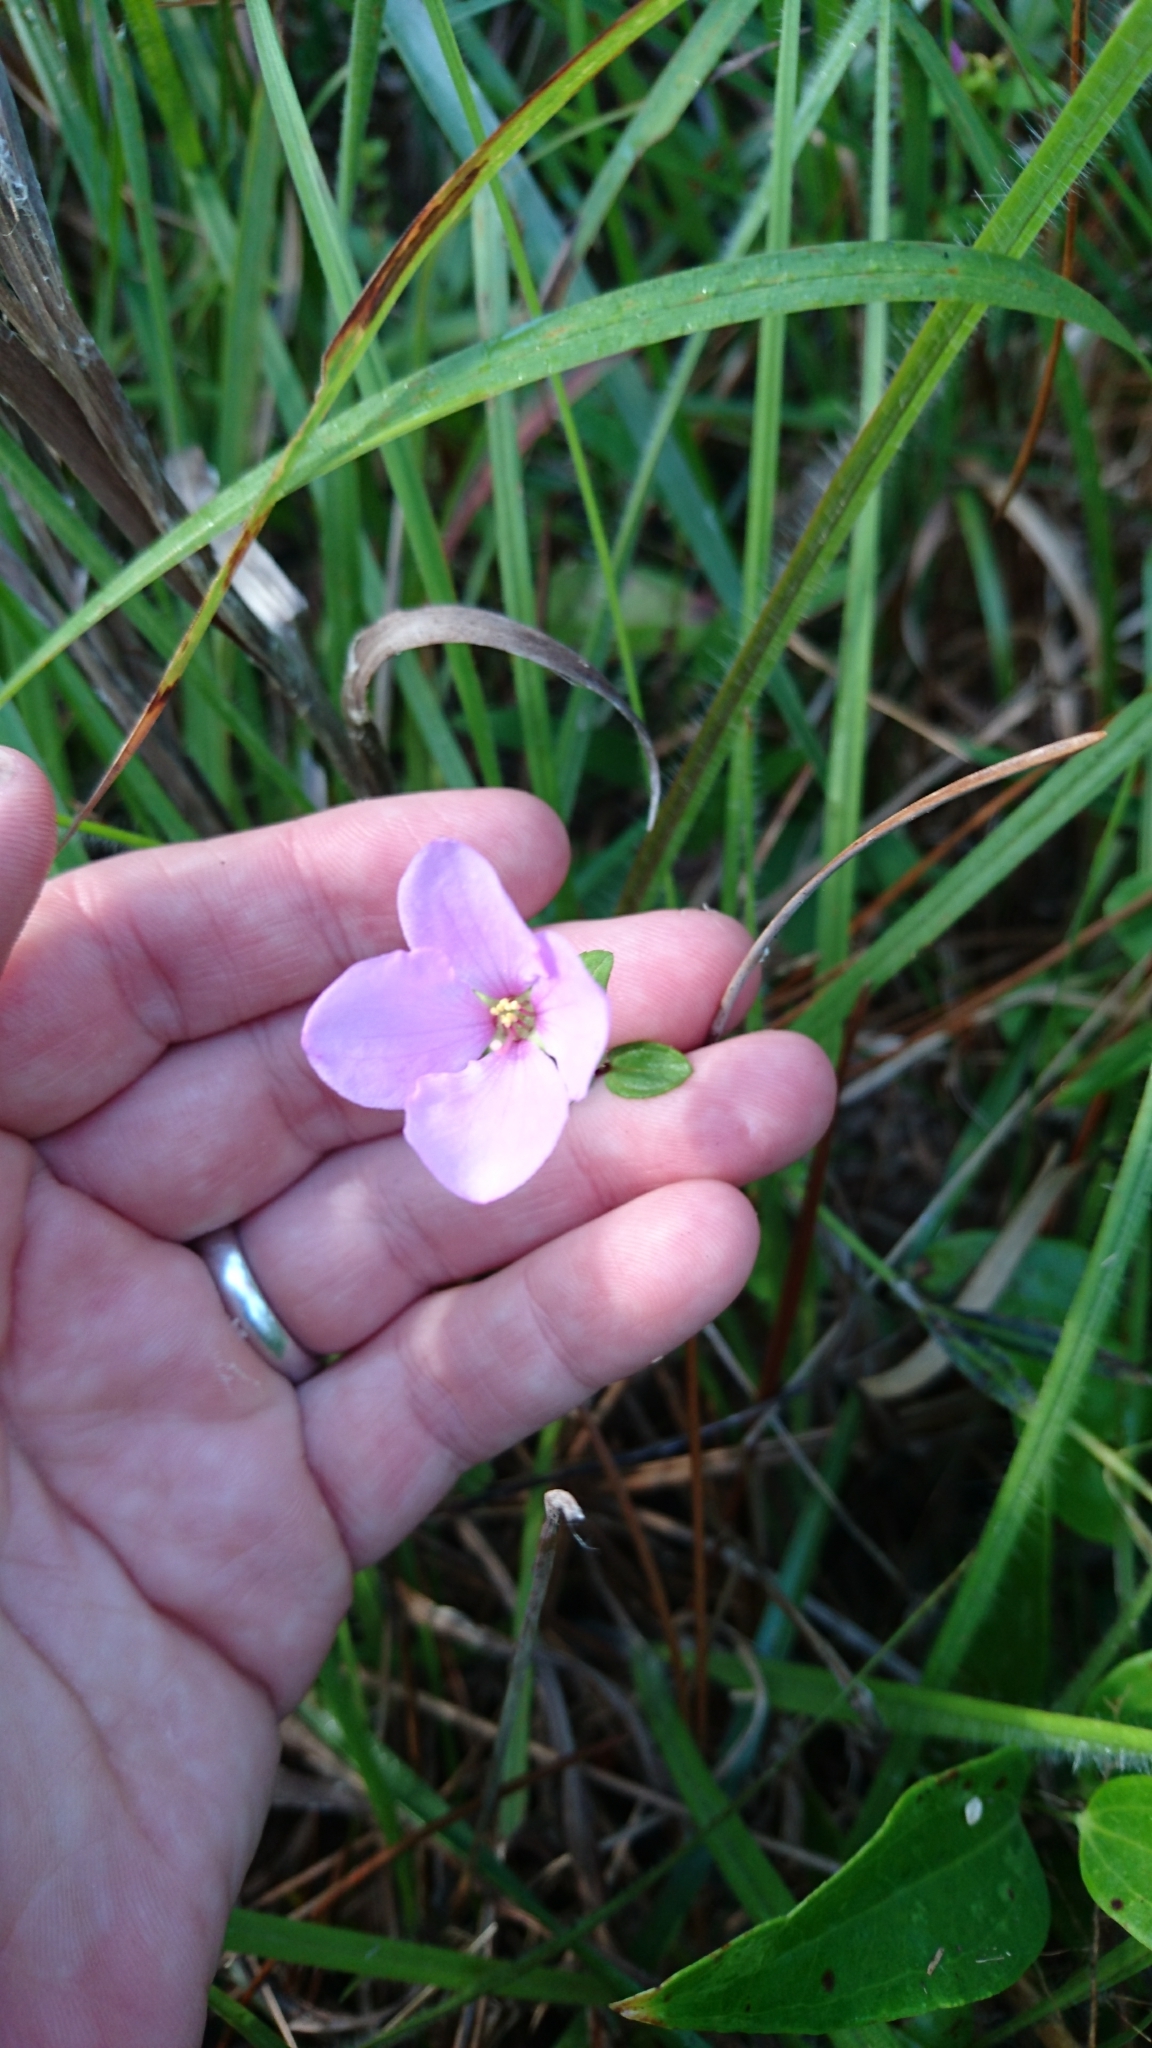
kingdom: Plantae
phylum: Tracheophyta
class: Magnoliopsida
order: Myrtales
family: Melastomataceae
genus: Rhexia
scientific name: Rhexia petiolata
